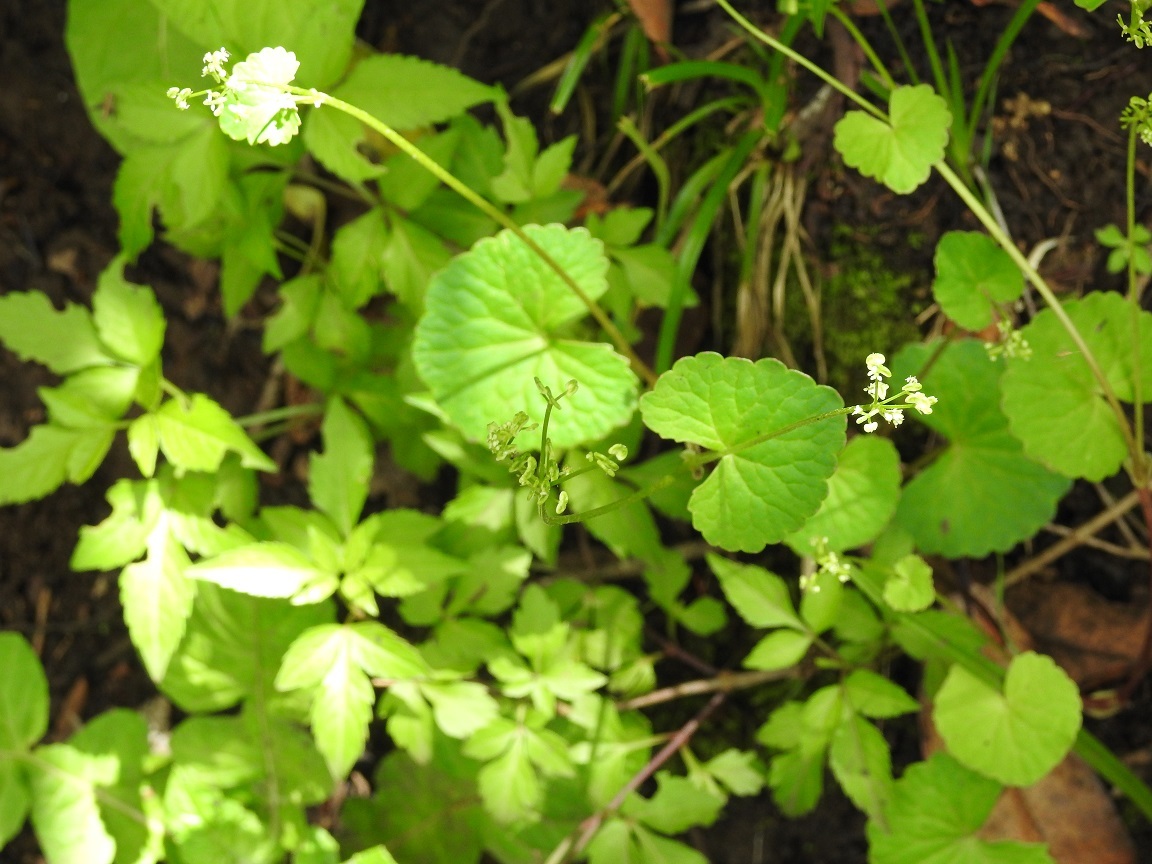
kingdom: Plantae
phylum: Tracheophyta
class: Magnoliopsida
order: Apiales
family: Apiaceae
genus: Micropleura
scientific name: Micropleura renifolia
